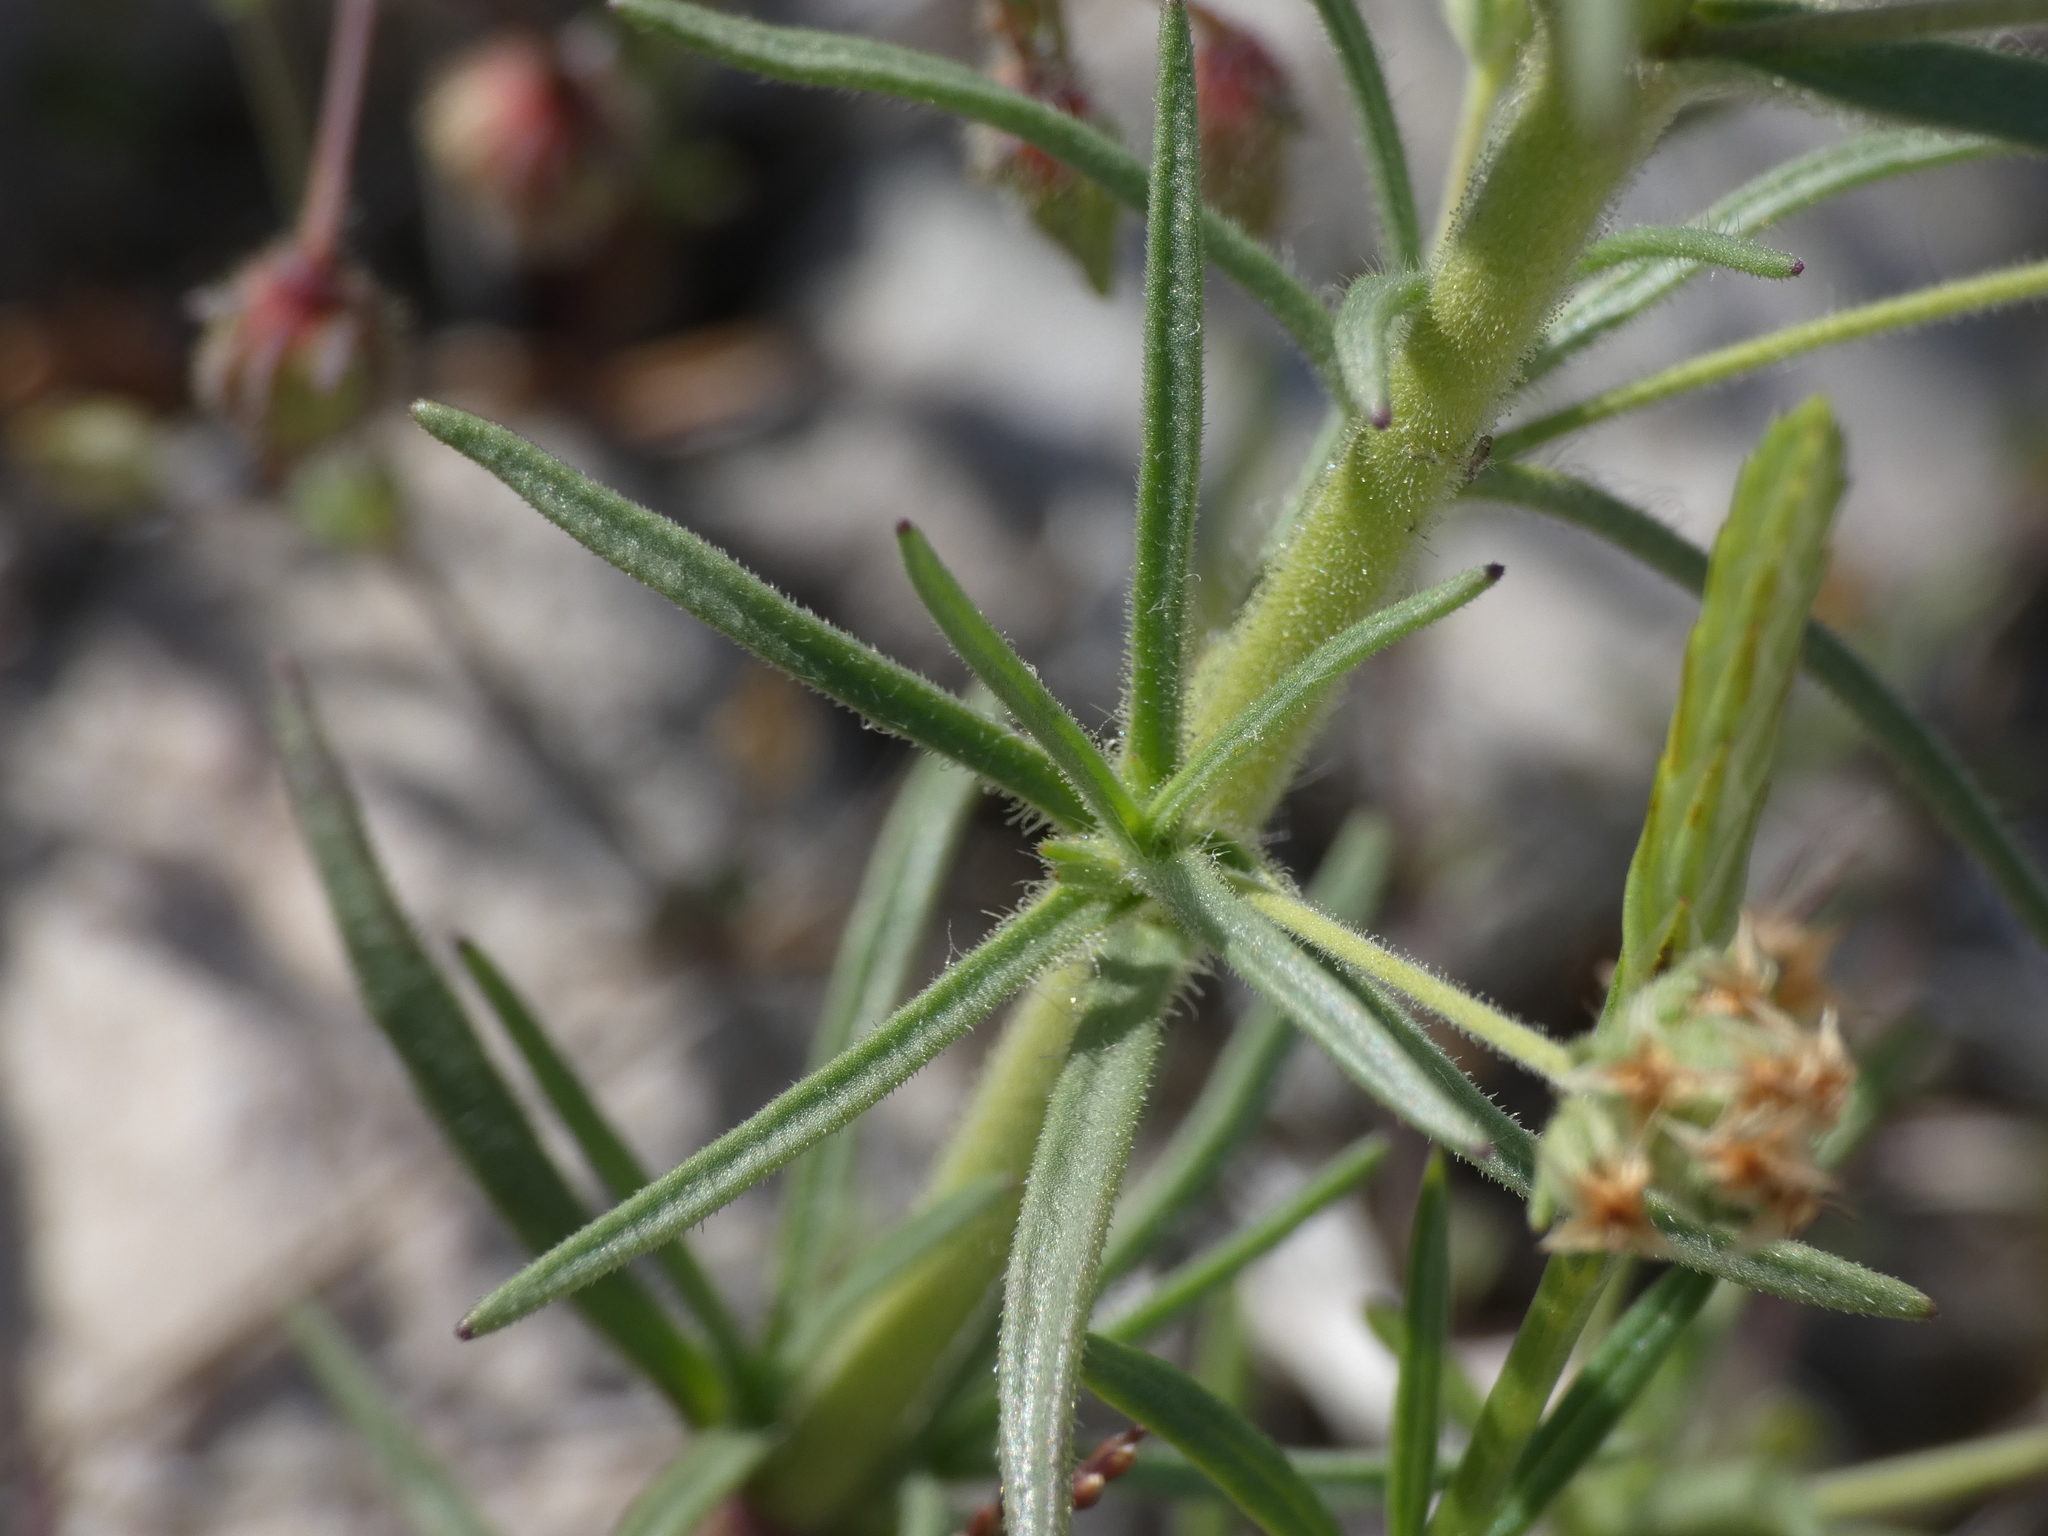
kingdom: Plantae
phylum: Tracheophyta
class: Magnoliopsida
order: Lamiales
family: Plantaginaceae
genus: Plantago
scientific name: Plantago afra
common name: Glandular plantain
